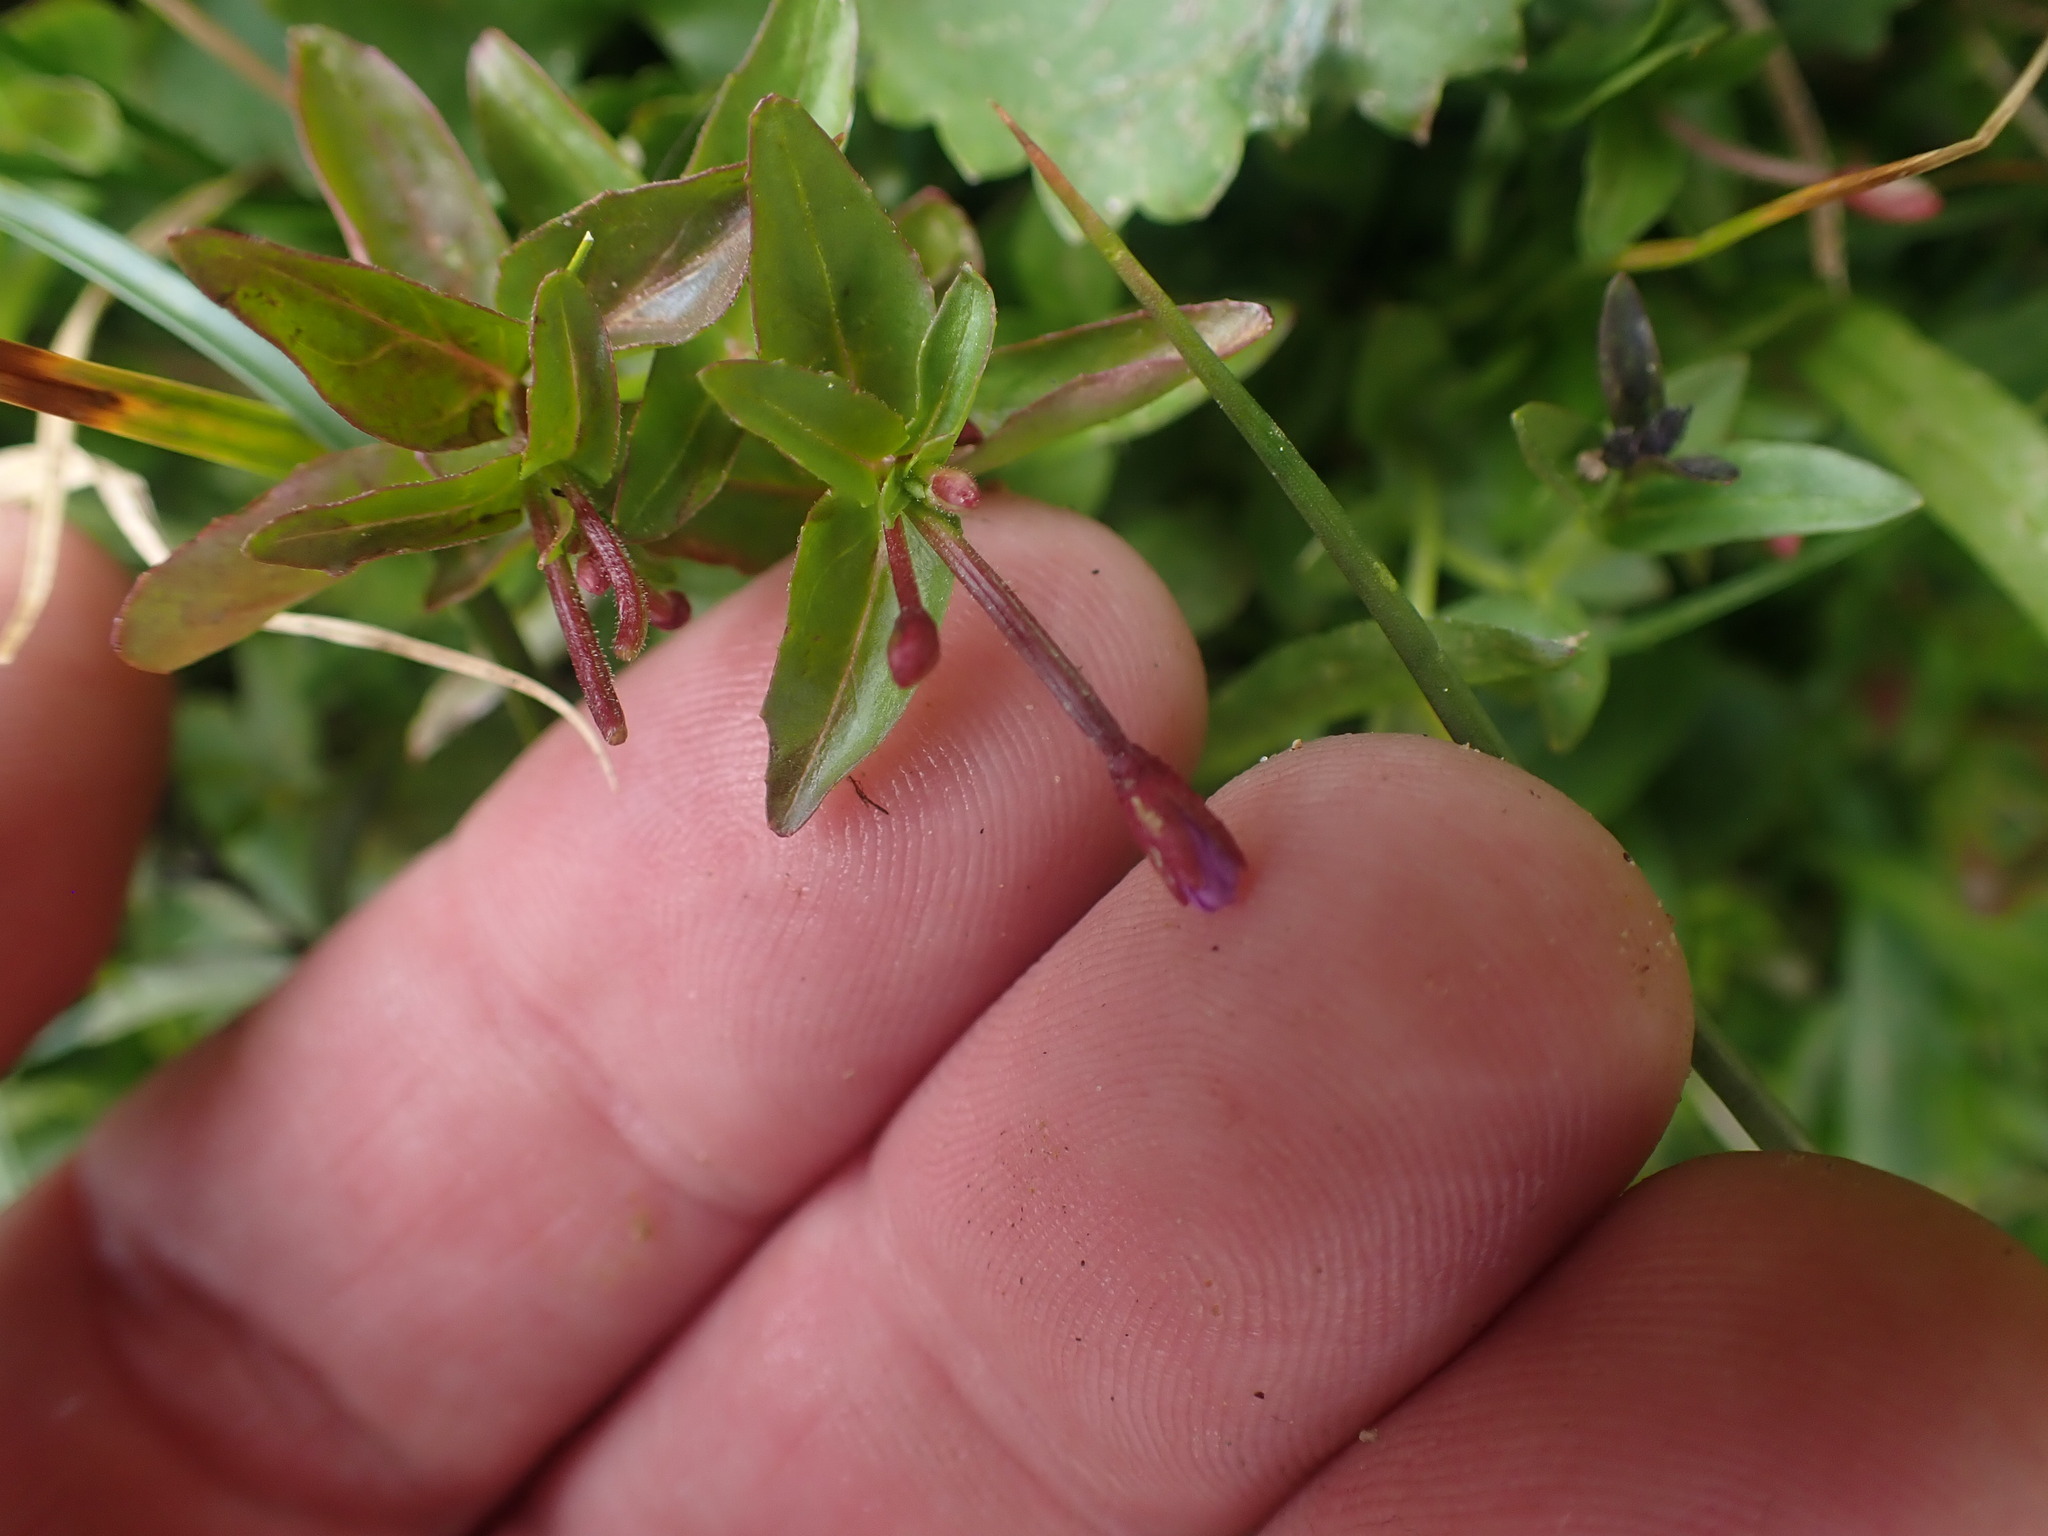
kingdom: Plantae
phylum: Tracheophyta
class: Magnoliopsida
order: Myrtales
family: Onagraceae
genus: Epilobium
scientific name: Epilobium anagallidifolium
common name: Alpine willowherb
